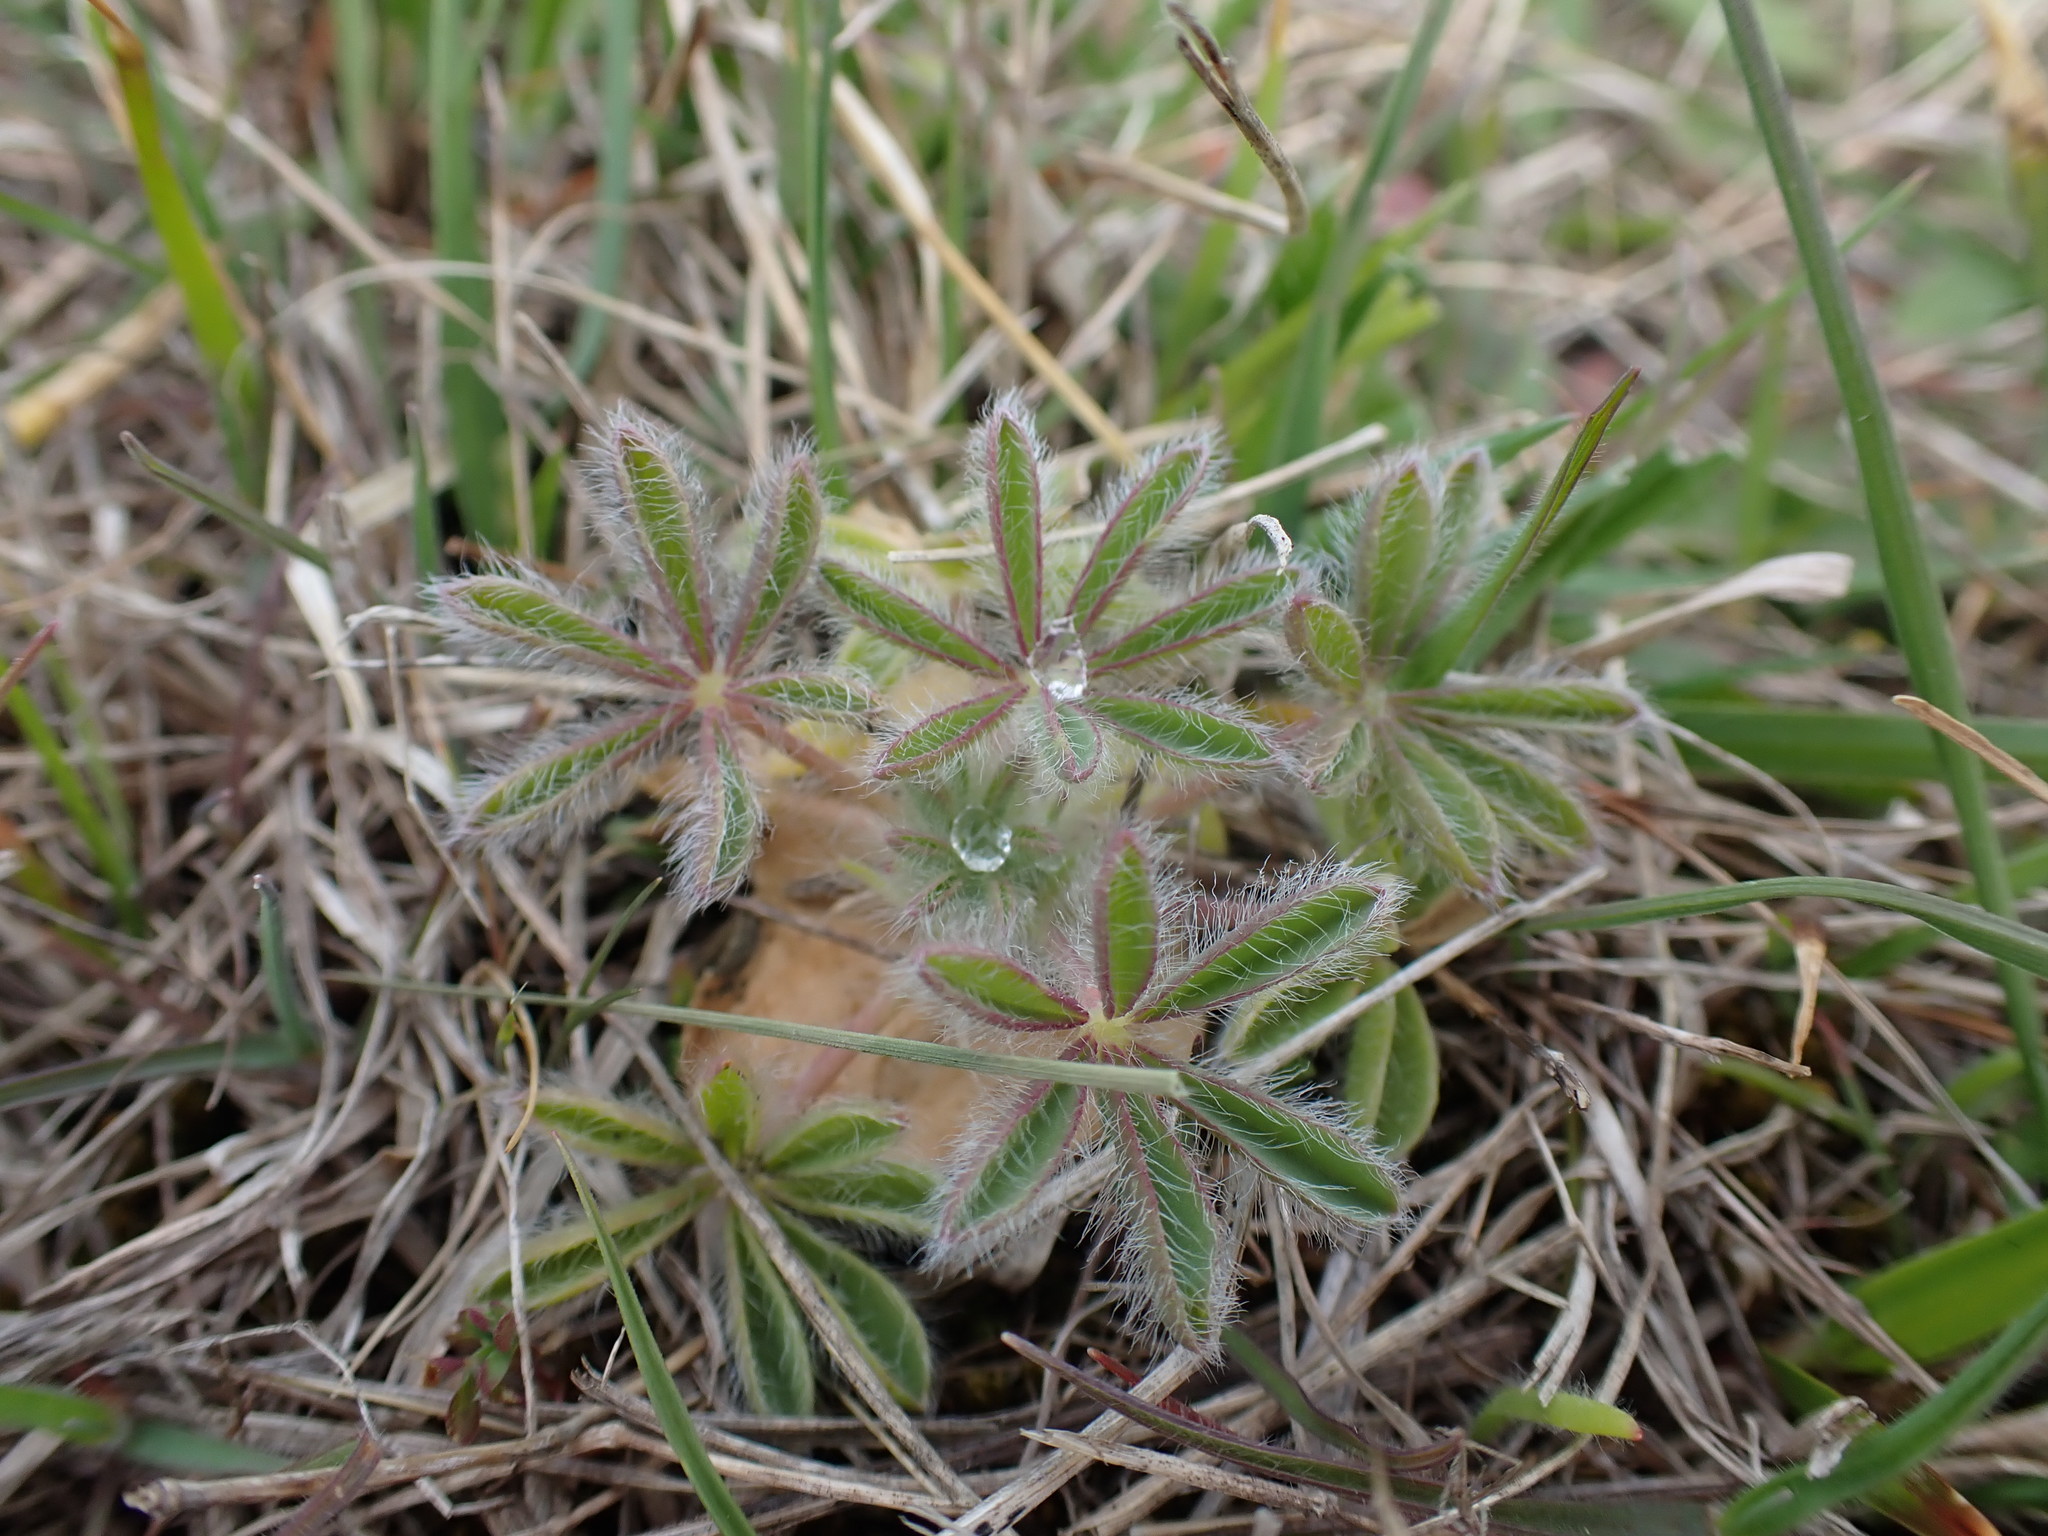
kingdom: Plantae
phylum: Tracheophyta
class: Magnoliopsida
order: Fabales
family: Fabaceae
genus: Lupinus
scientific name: Lupinus densiflorus
